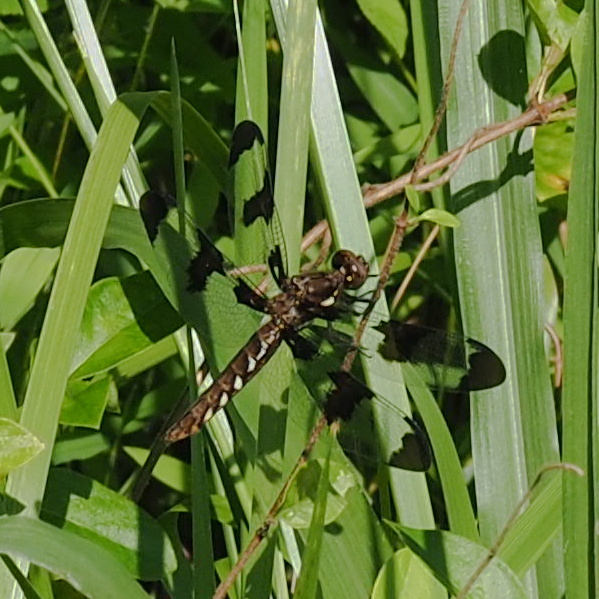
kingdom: Animalia
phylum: Arthropoda
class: Insecta
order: Odonata
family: Libellulidae
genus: Plathemis
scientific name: Plathemis lydia
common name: Common whitetail
